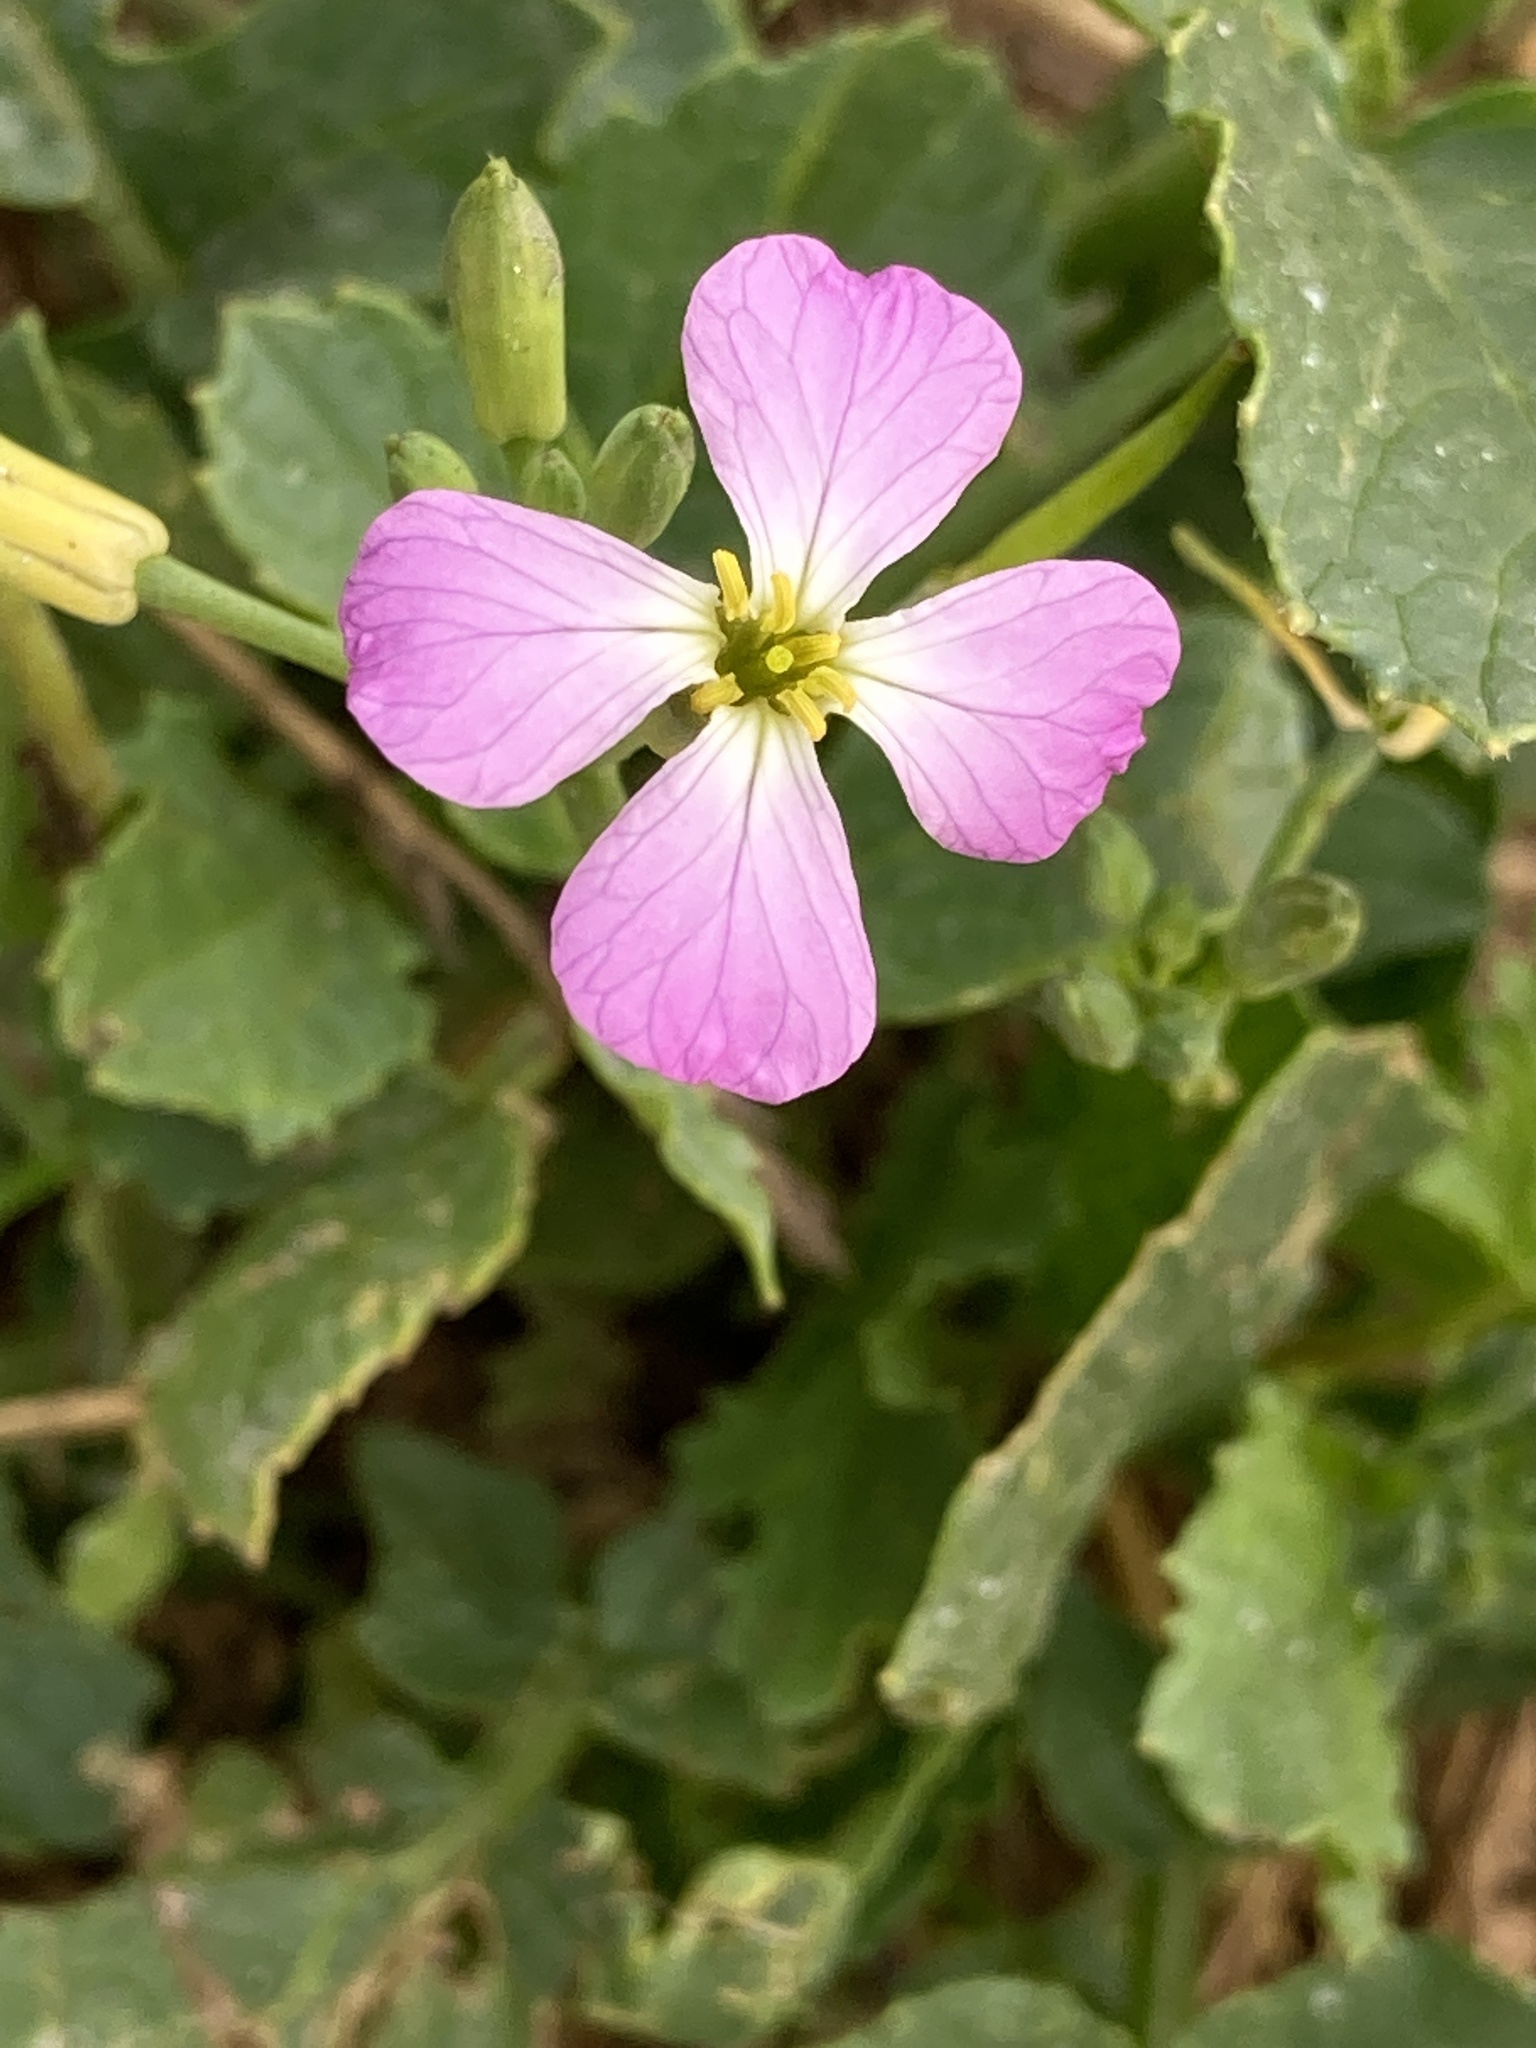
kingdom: Plantae
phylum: Tracheophyta
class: Magnoliopsida
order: Brassicales
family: Brassicaceae
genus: Raphanus
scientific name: Raphanus sativus
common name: Cultivated radish
